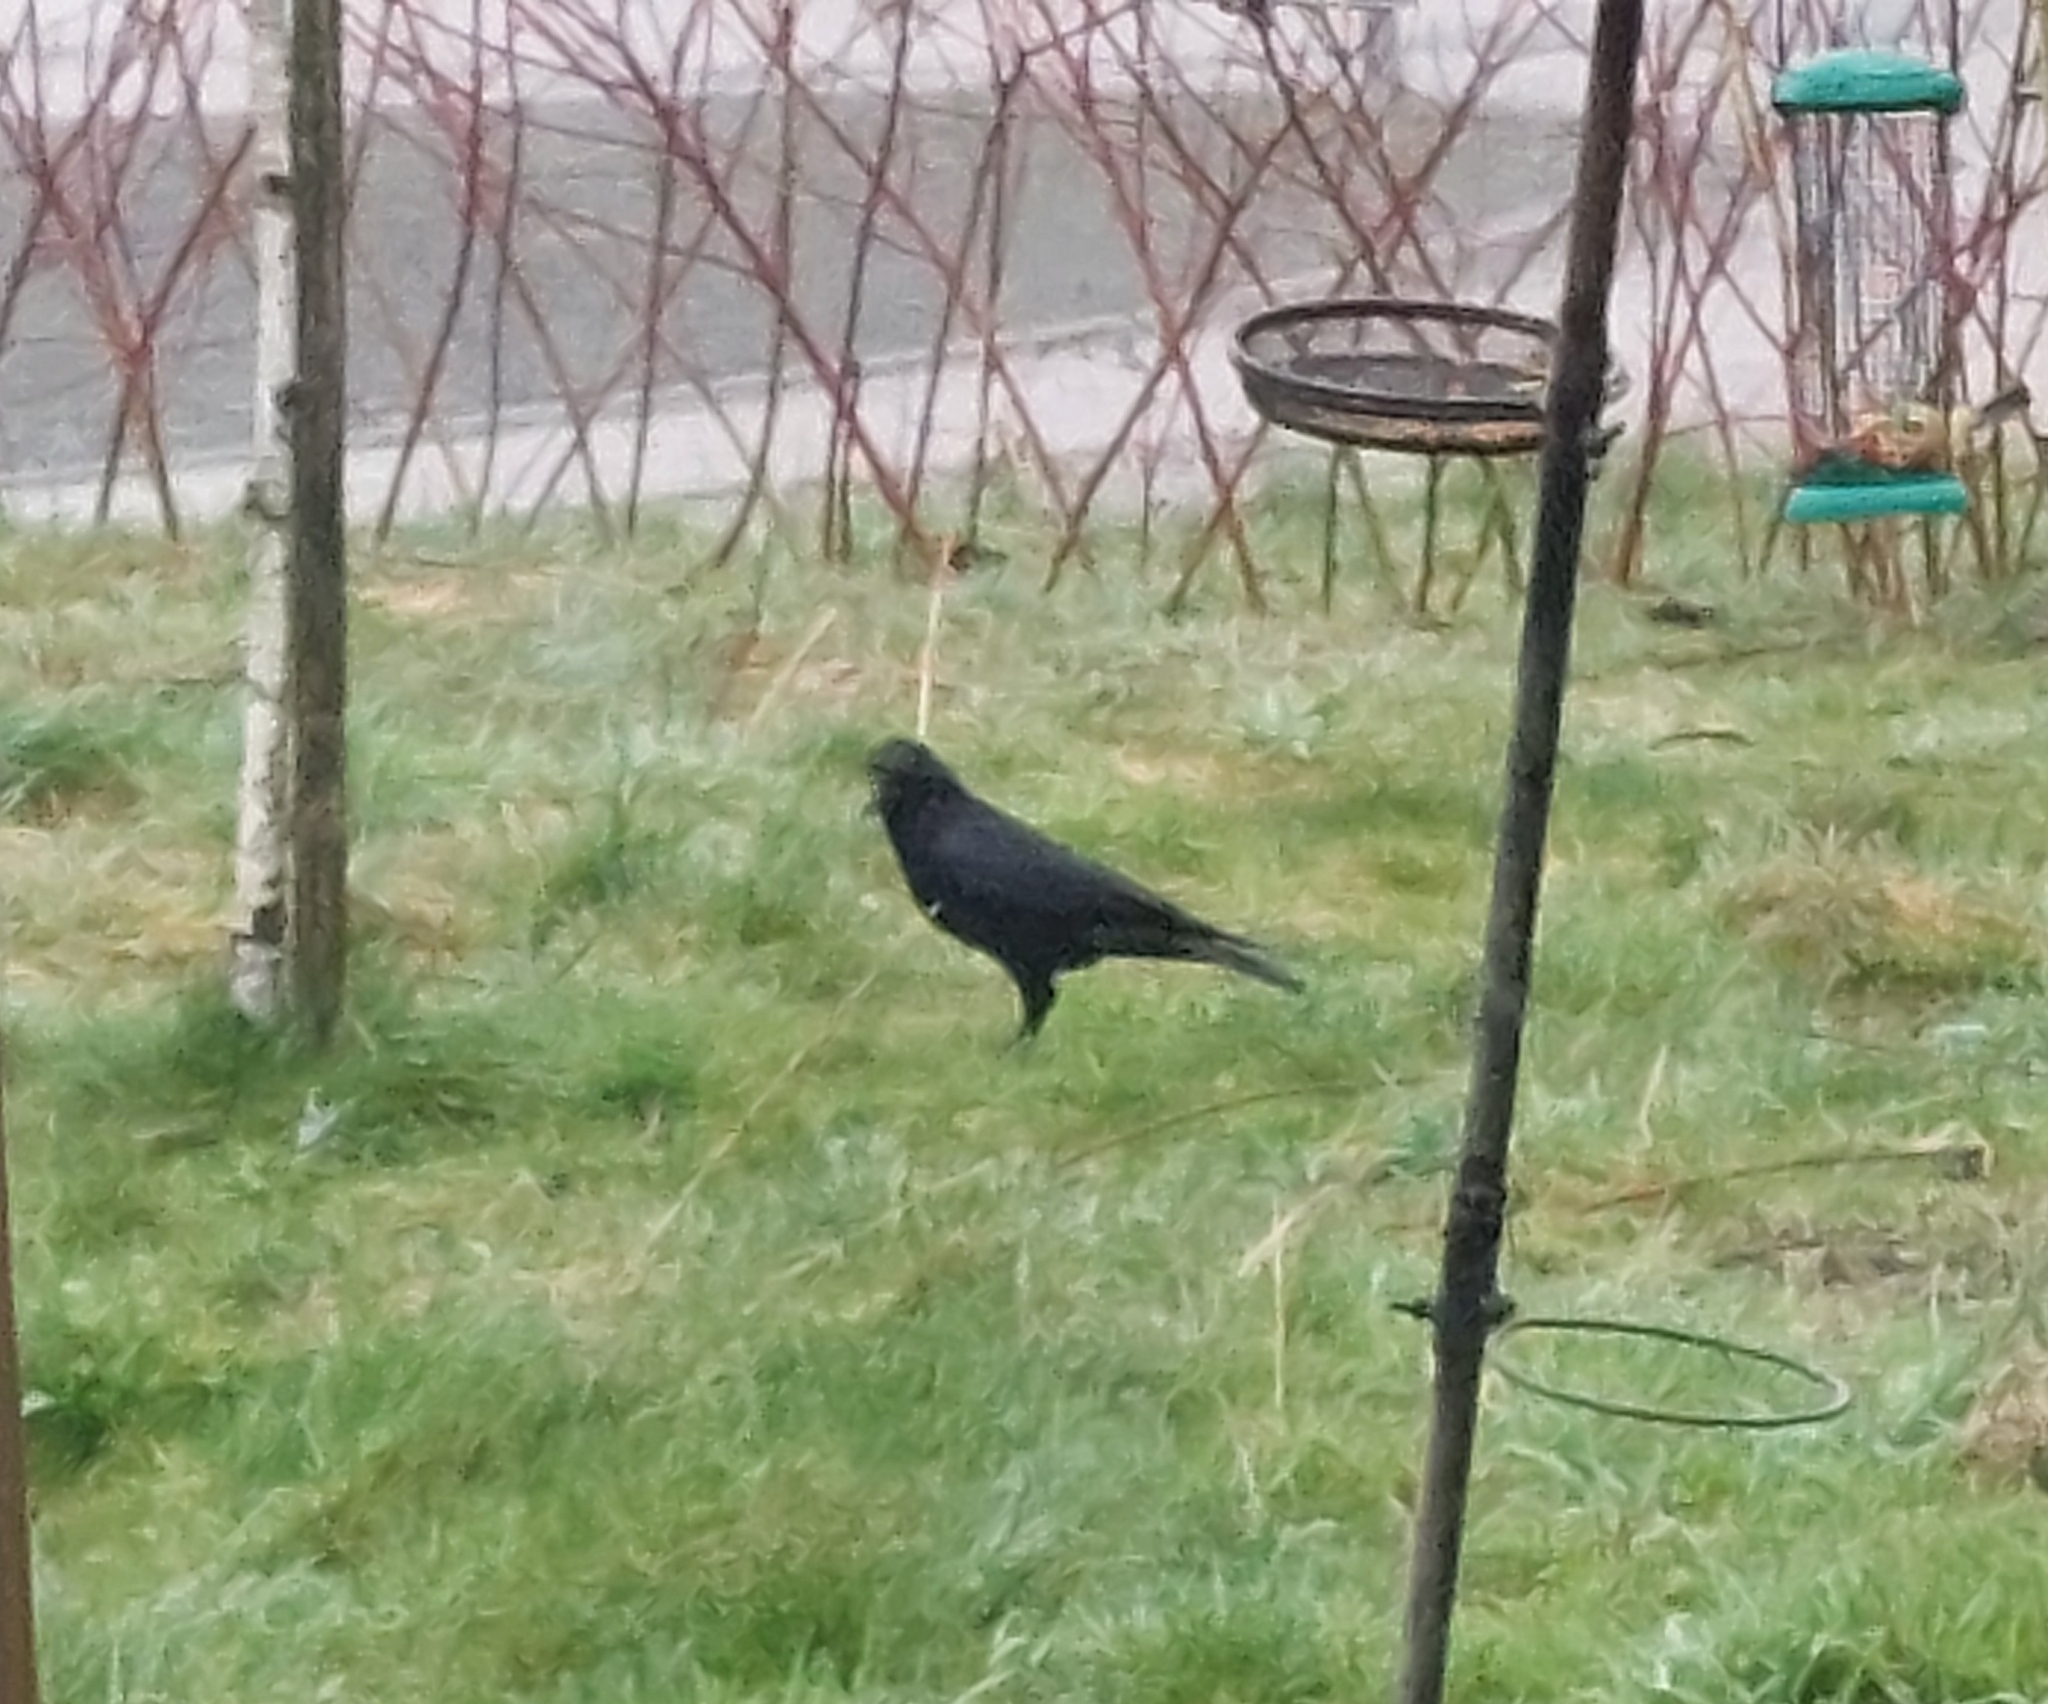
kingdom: Animalia
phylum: Chordata
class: Aves
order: Passeriformes
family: Corvidae
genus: Corvus
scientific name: Corvus corone
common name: Carrion crow
